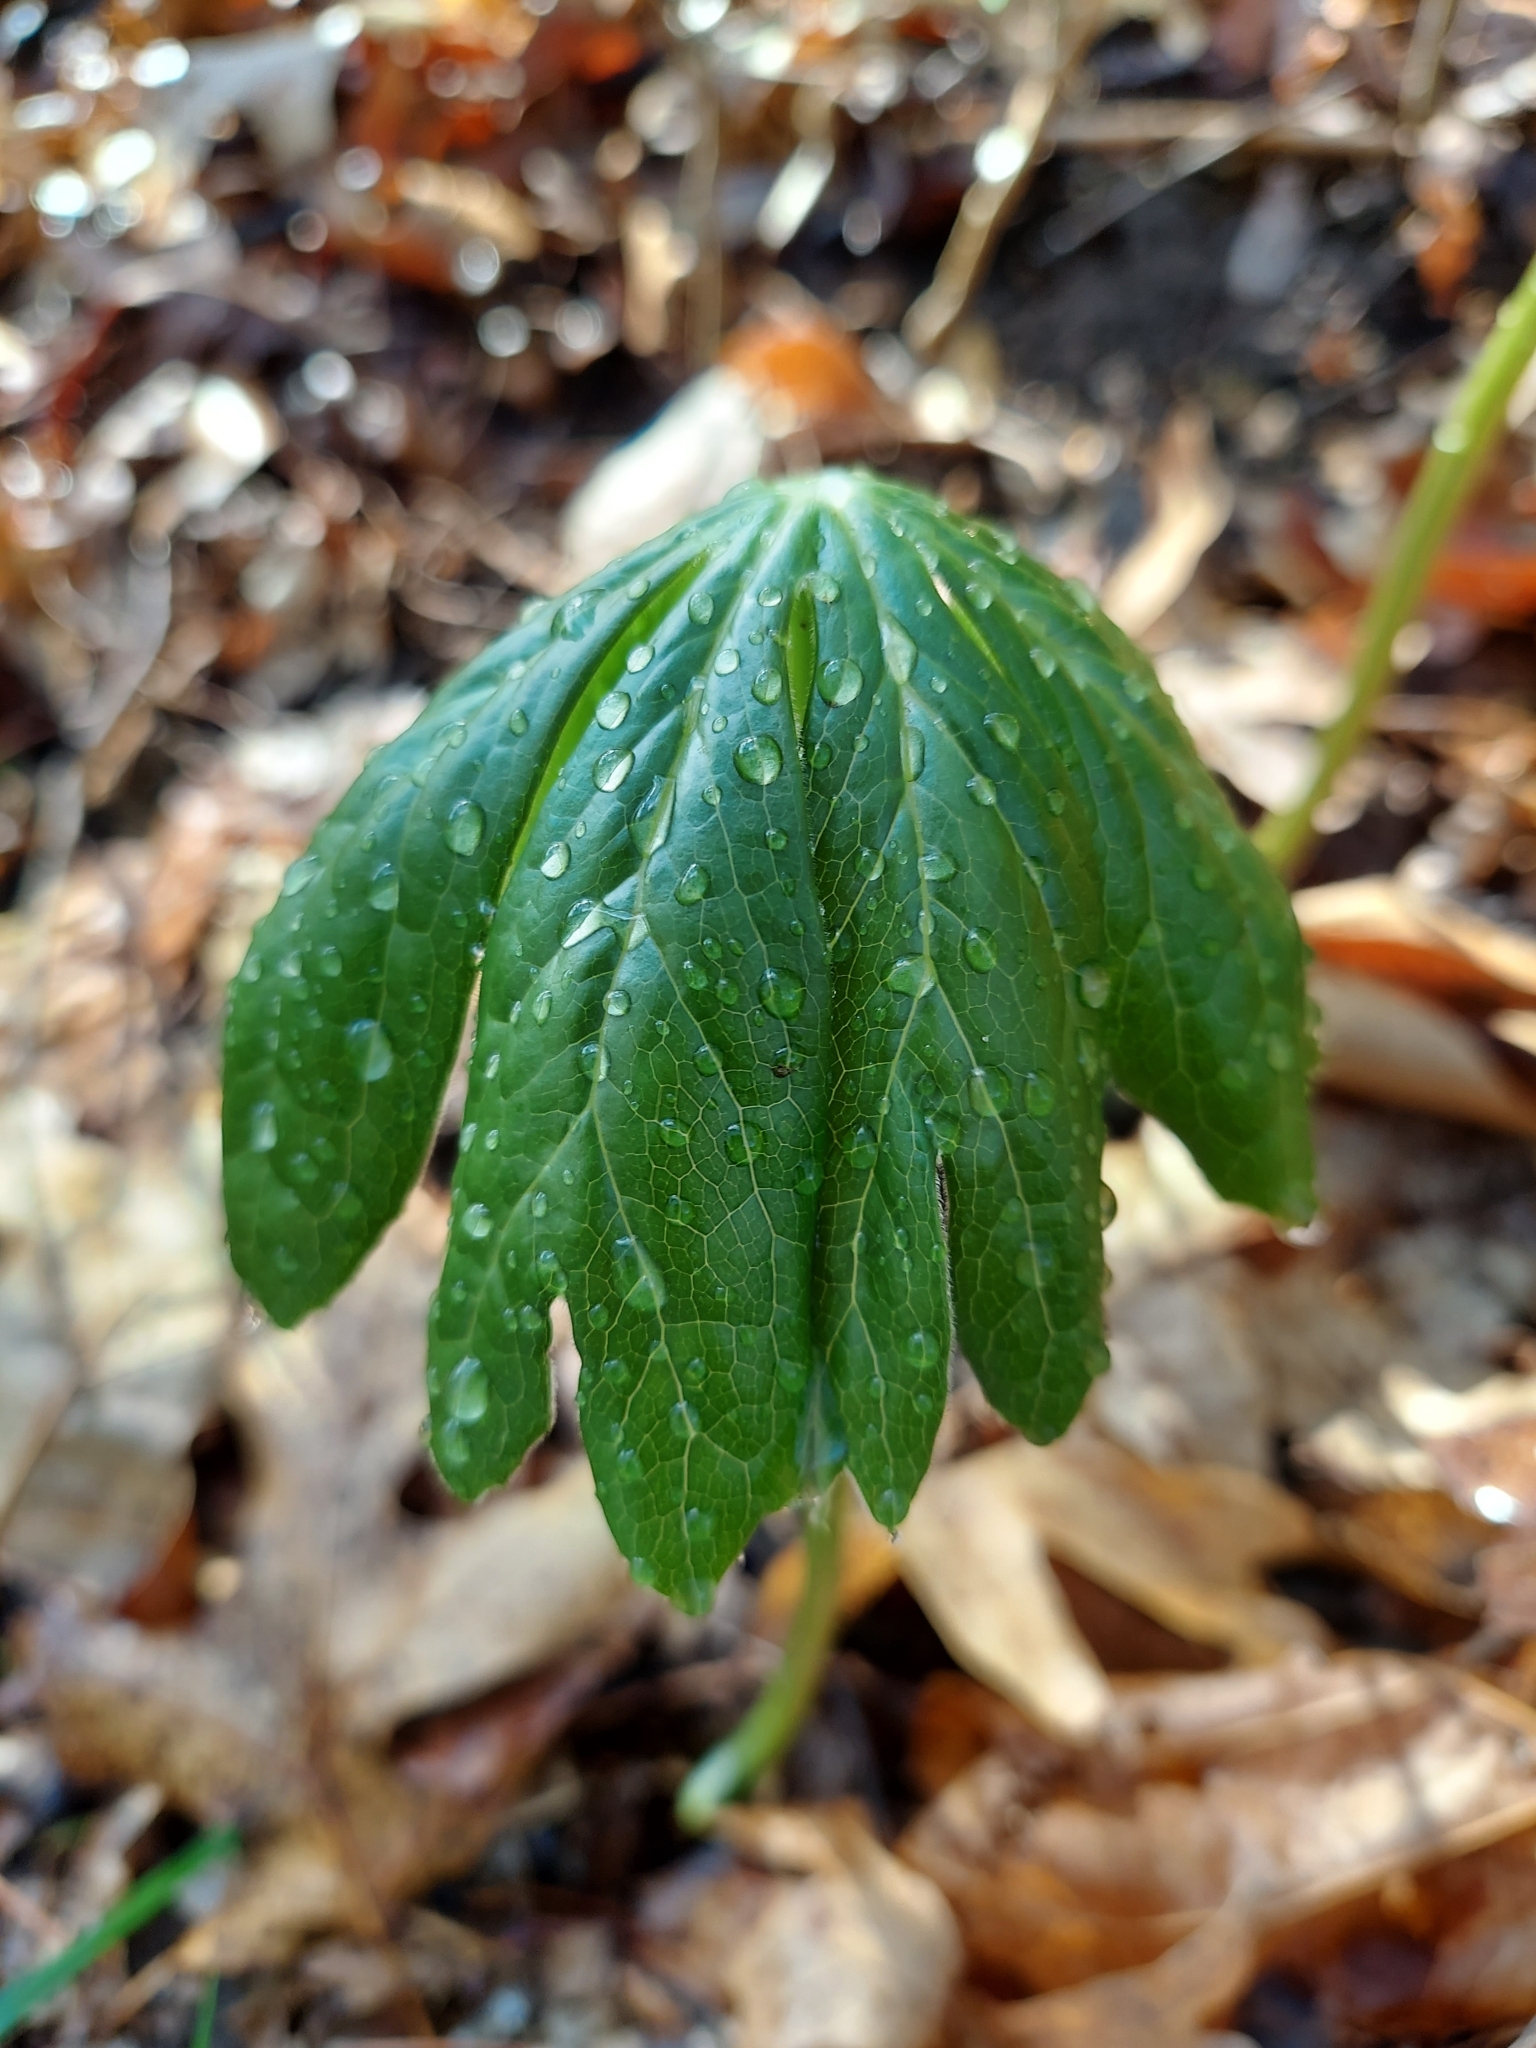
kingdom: Plantae
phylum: Tracheophyta
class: Magnoliopsida
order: Ranunculales
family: Berberidaceae
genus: Podophyllum
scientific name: Podophyllum peltatum
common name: Wild mandrake
